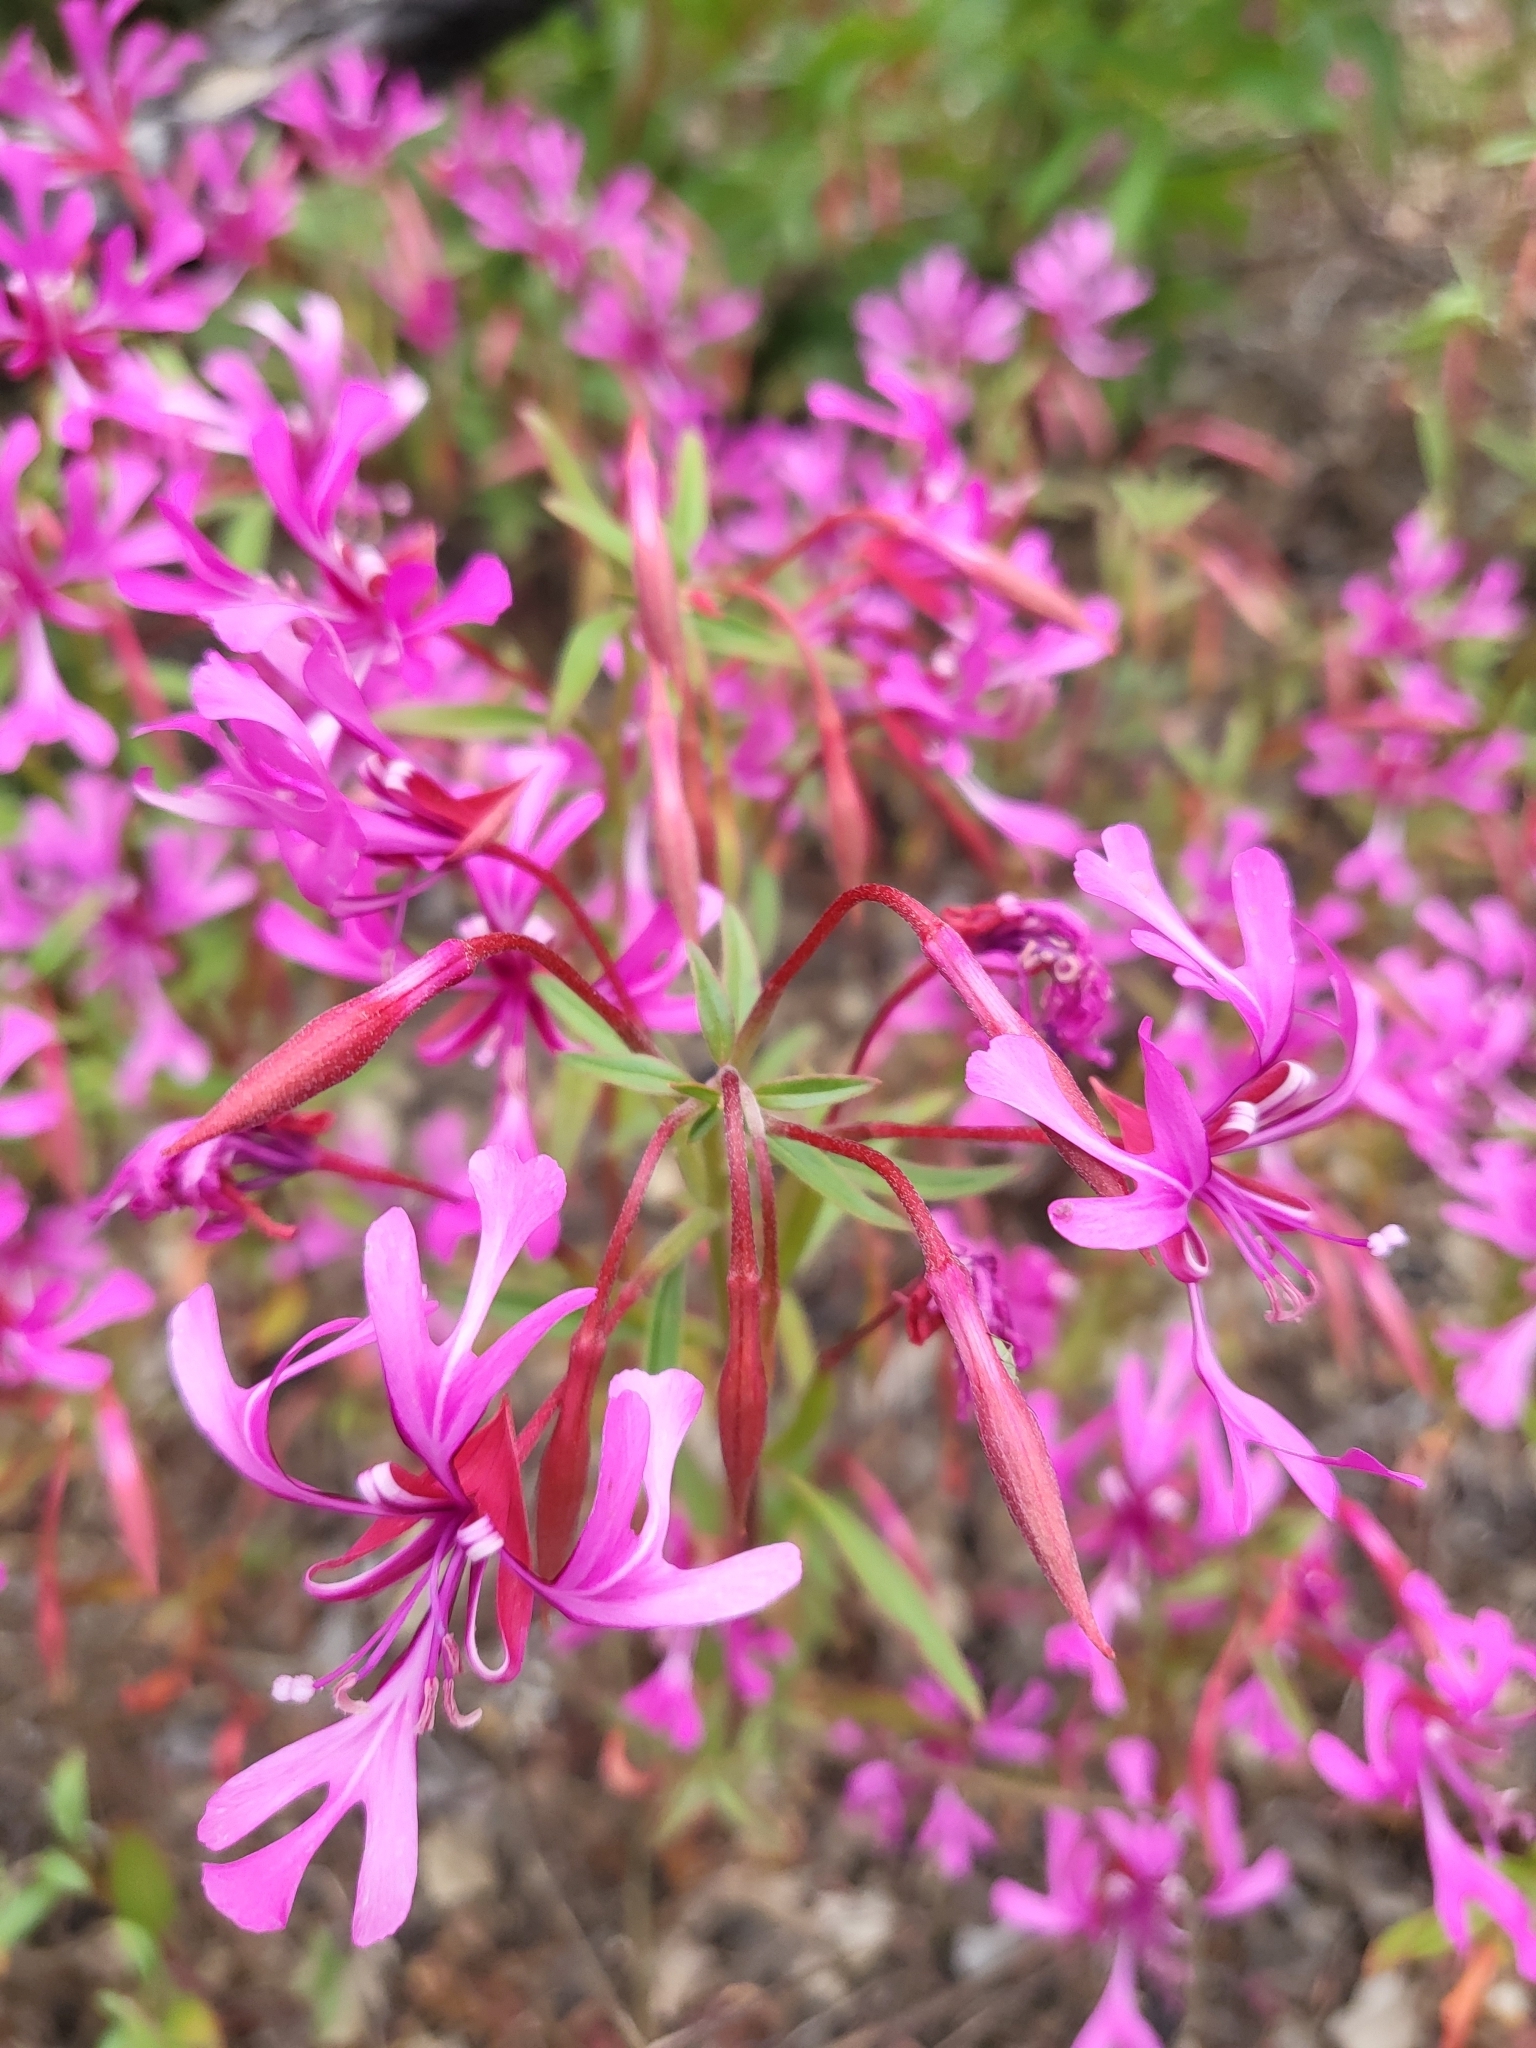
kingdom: Plantae
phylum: Tracheophyta
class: Magnoliopsida
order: Myrtales
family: Onagraceae
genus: Clarkia
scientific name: Clarkia concinna
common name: Red-ribbons
